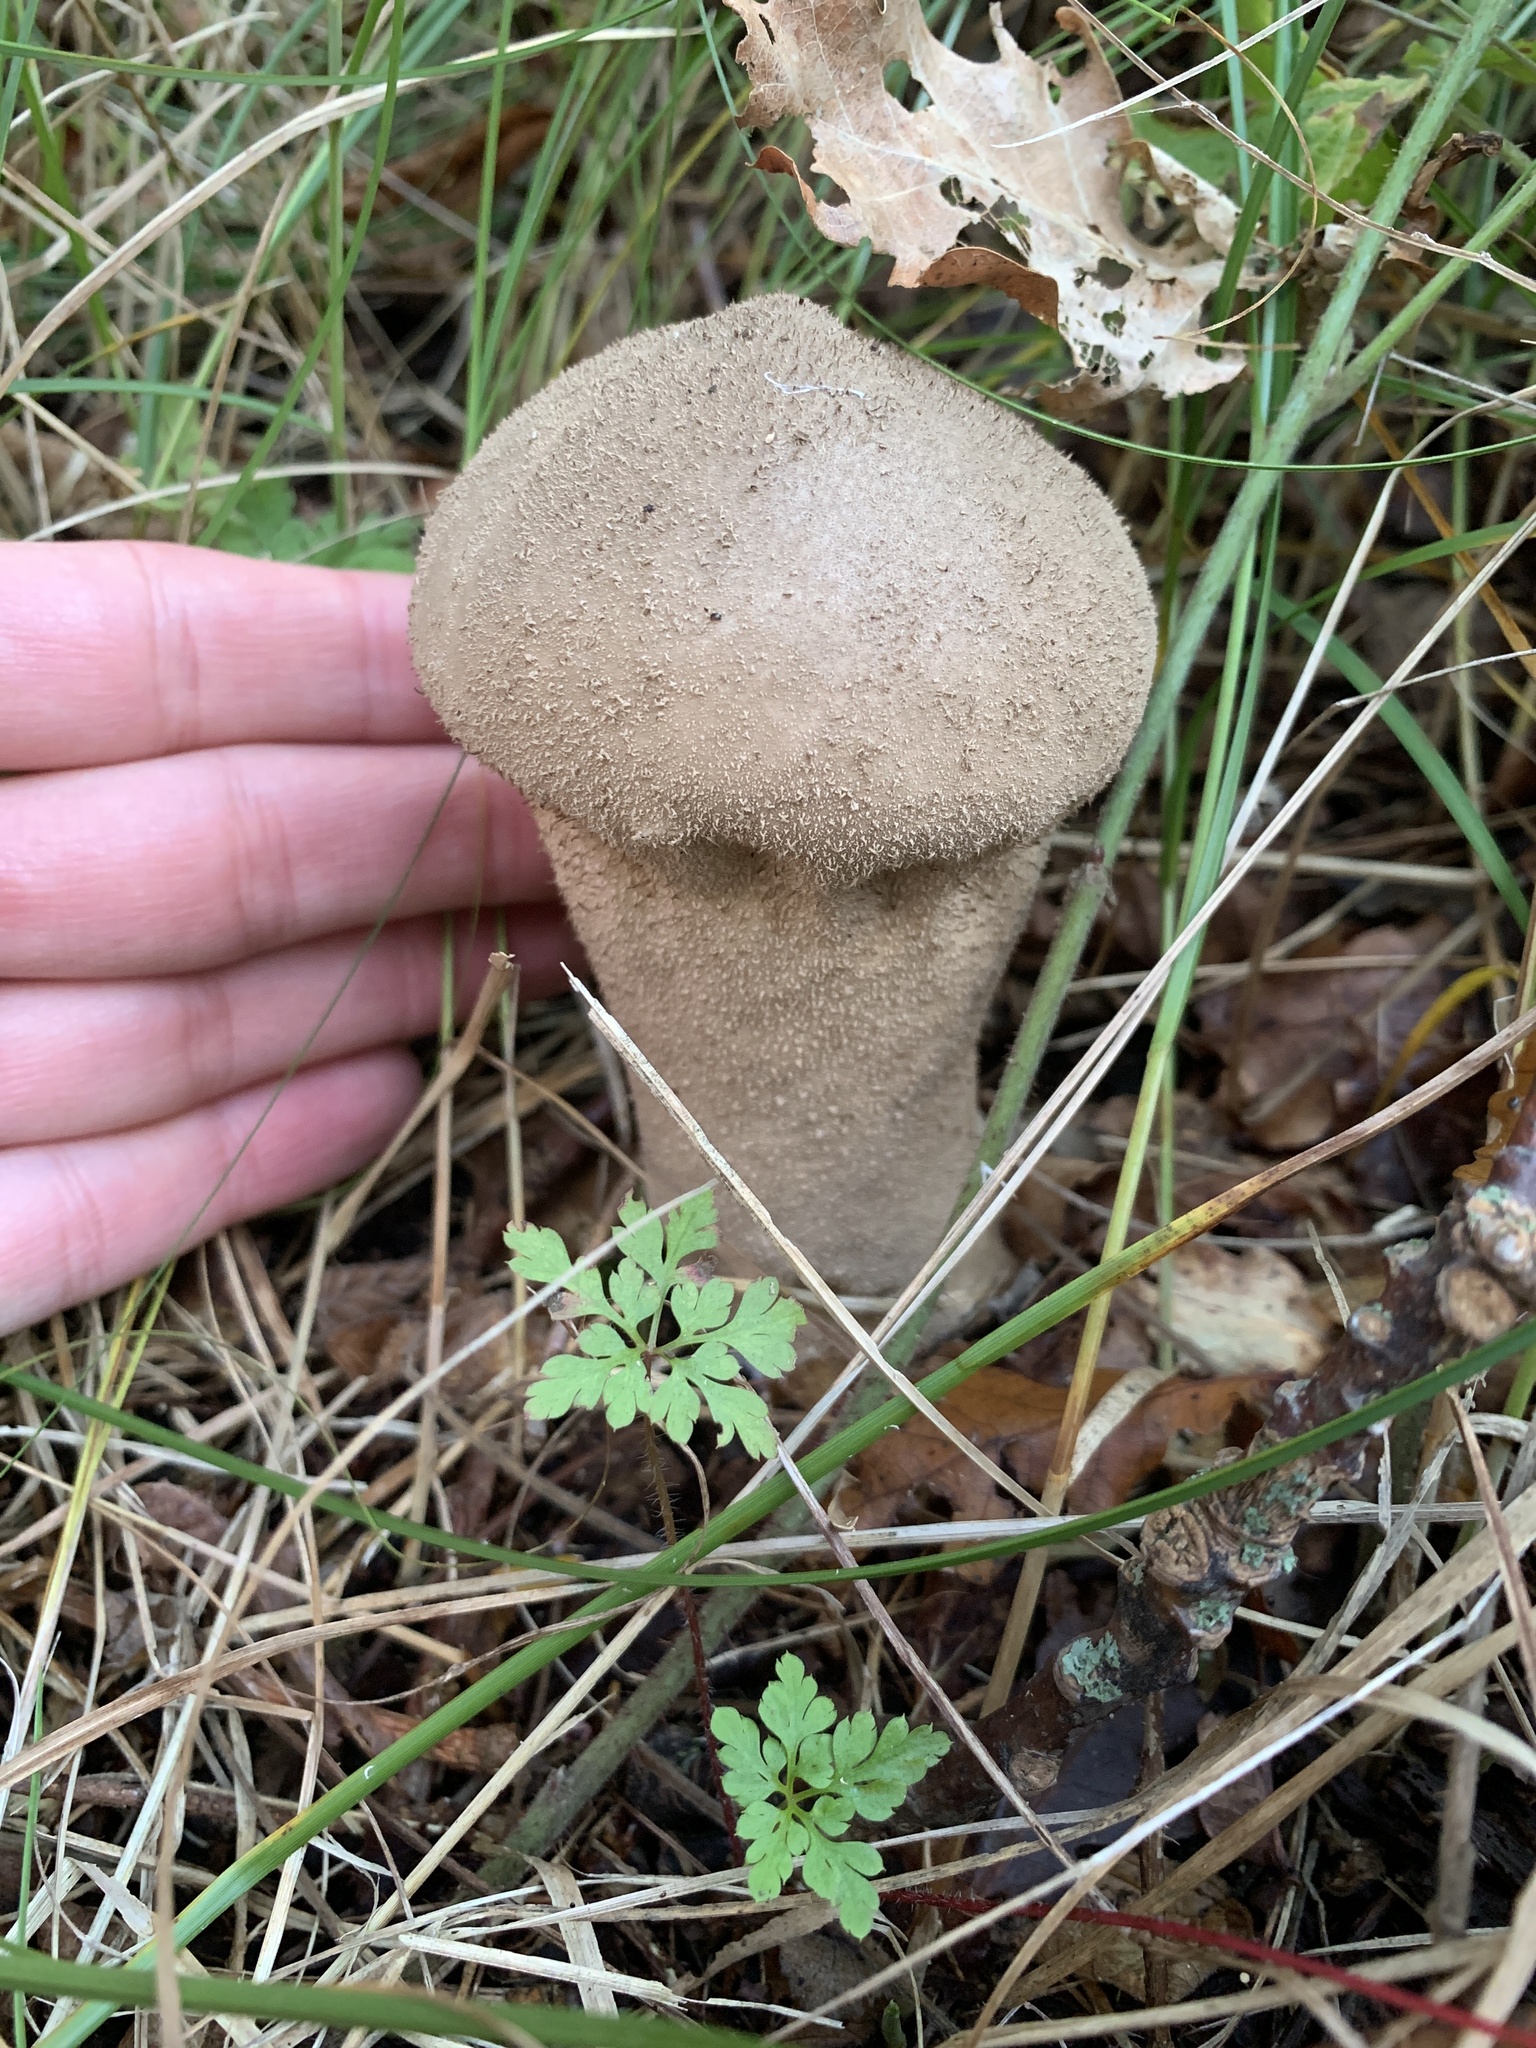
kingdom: Fungi
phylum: Basidiomycota
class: Agaricomycetes
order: Agaricales
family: Lycoperdaceae
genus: Lycoperdon
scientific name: Lycoperdon excipuliforme
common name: Pestle puffball
